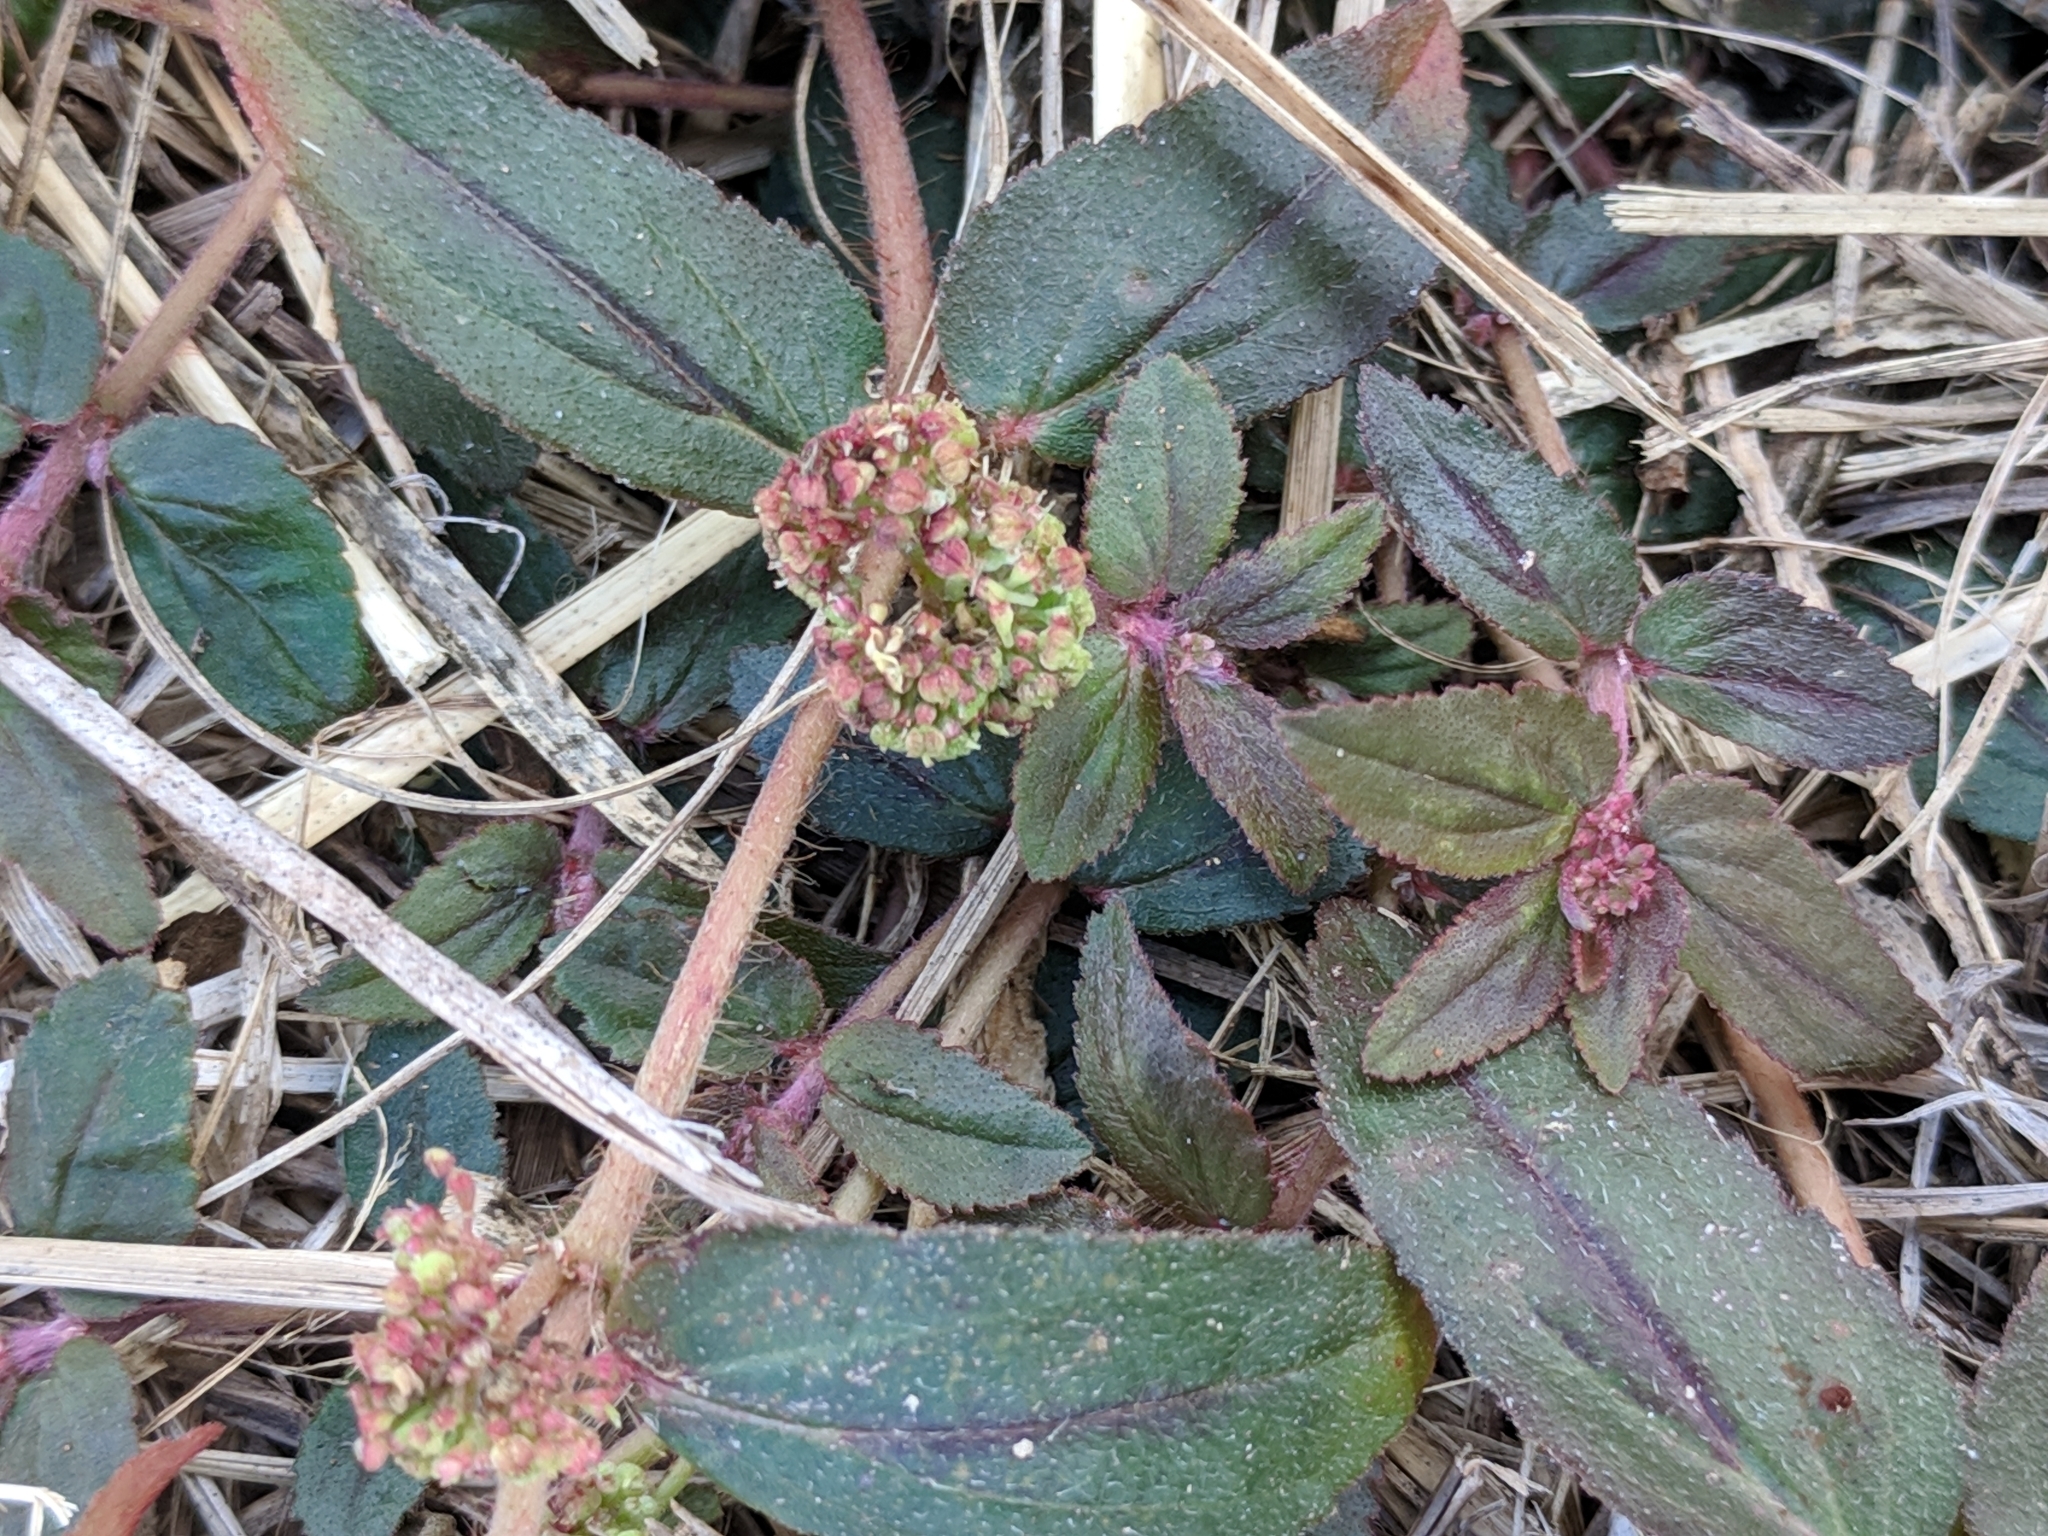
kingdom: Plantae
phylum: Tracheophyta
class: Magnoliopsida
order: Malpighiales
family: Euphorbiaceae
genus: Euphorbia
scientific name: Euphorbia hirta
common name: Pillpod sandmat
